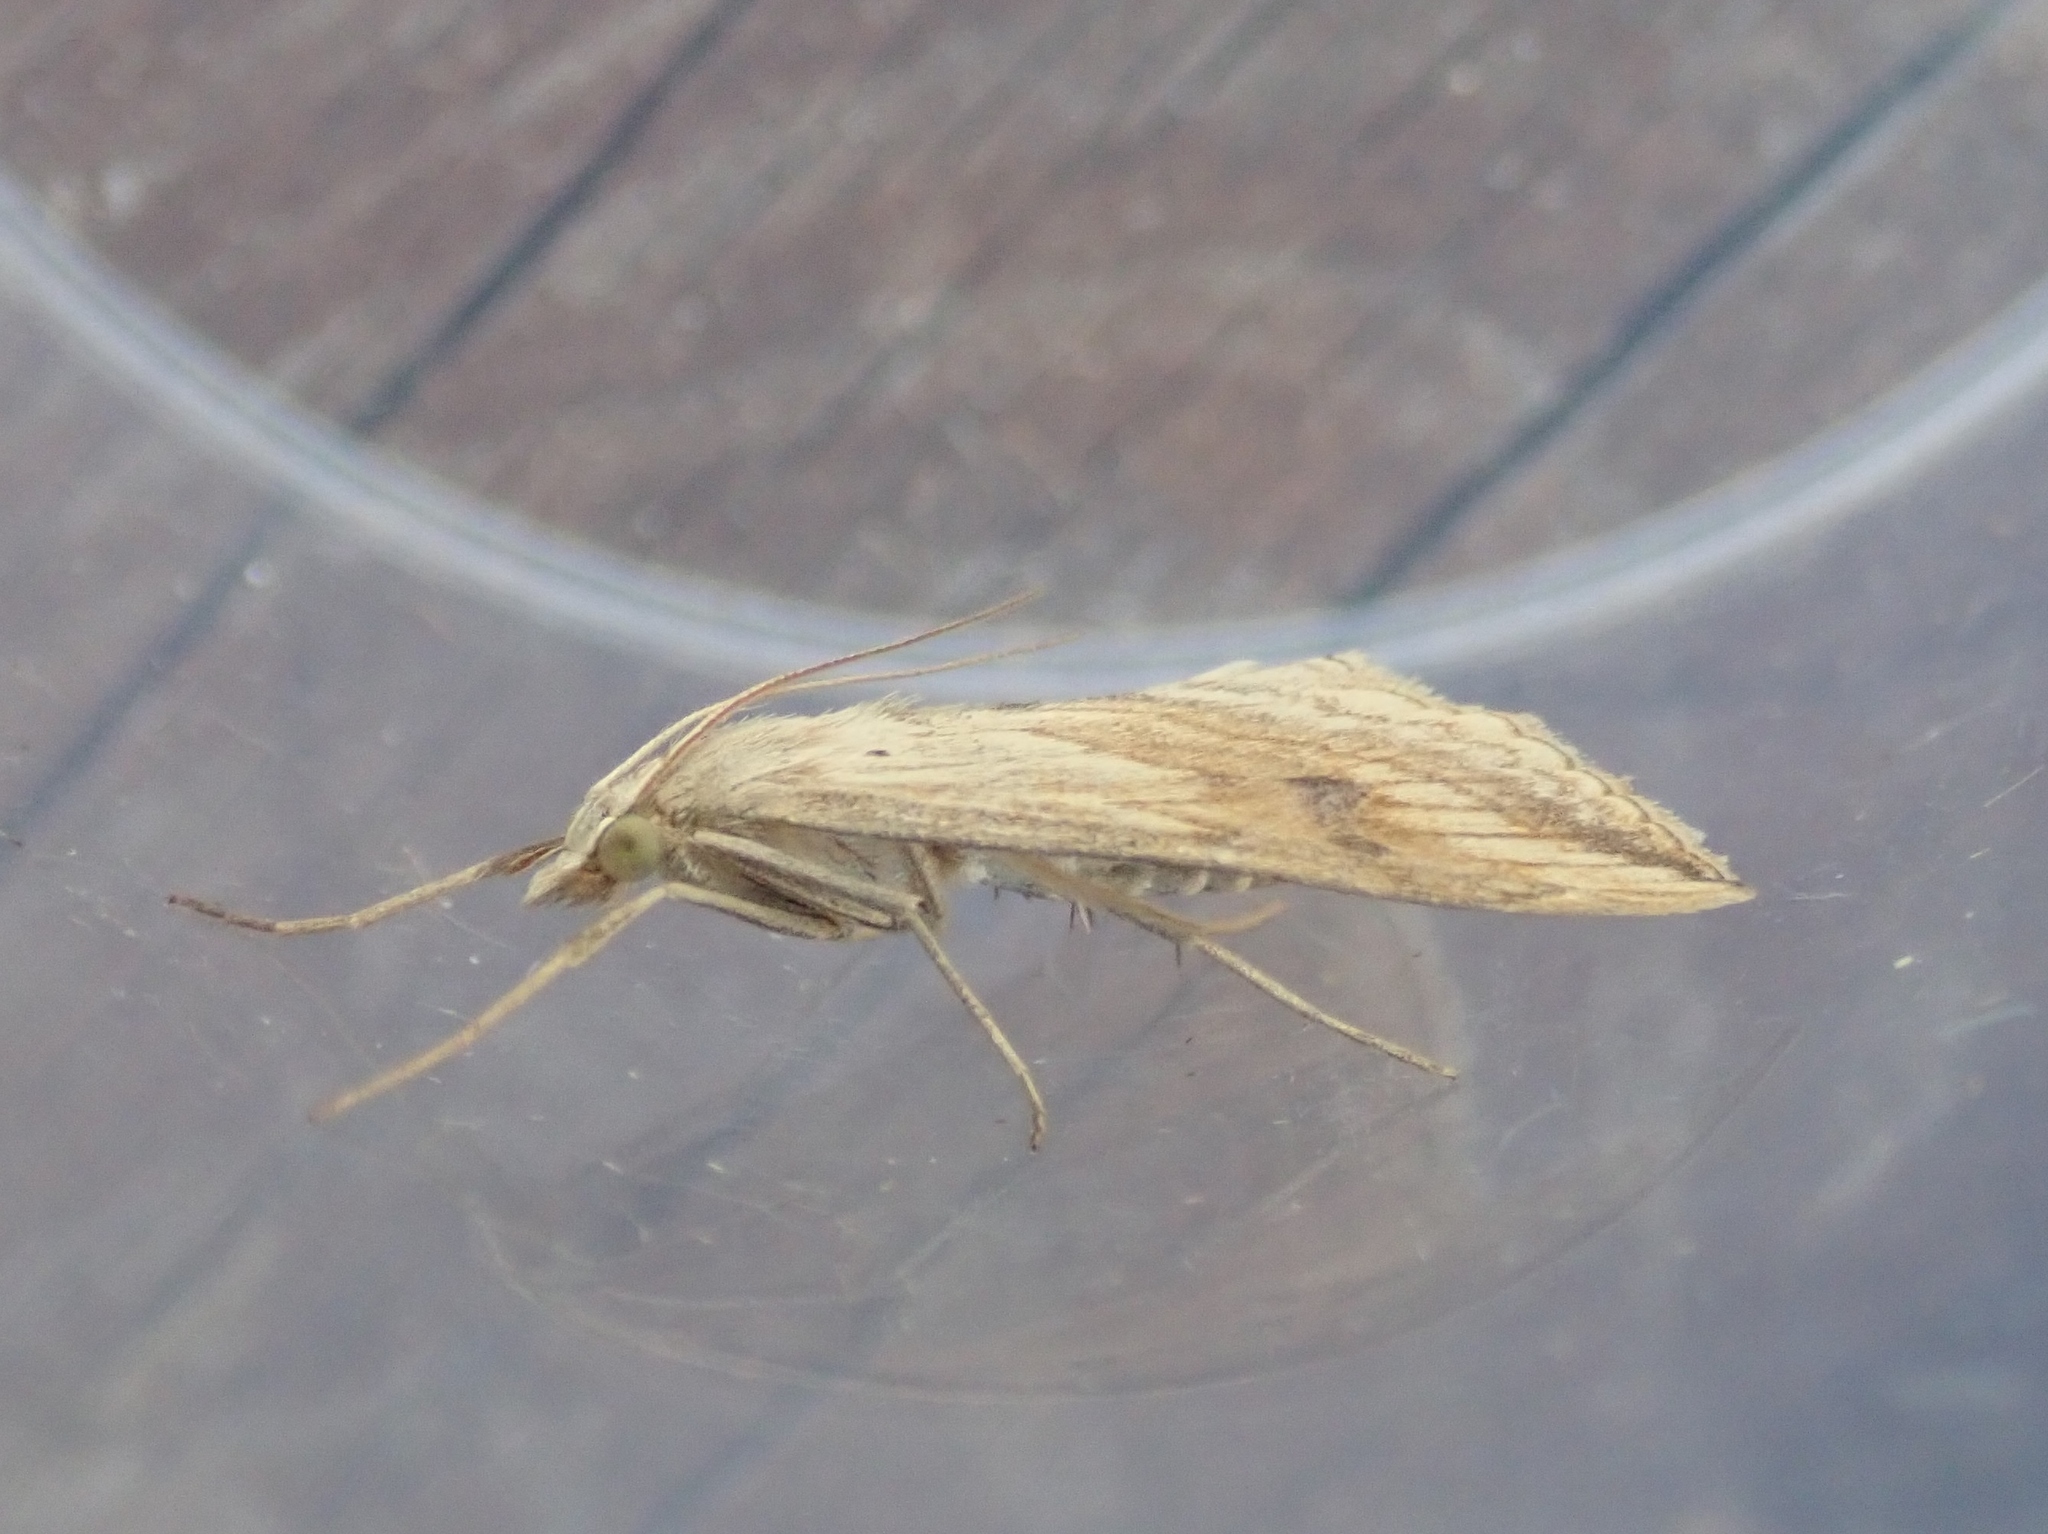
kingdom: Animalia
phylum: Arthropoda
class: Insecta
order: Lepidoptera
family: Crambidae
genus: Evergestis
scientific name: Evergestis forficalis
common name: Garden pebble
